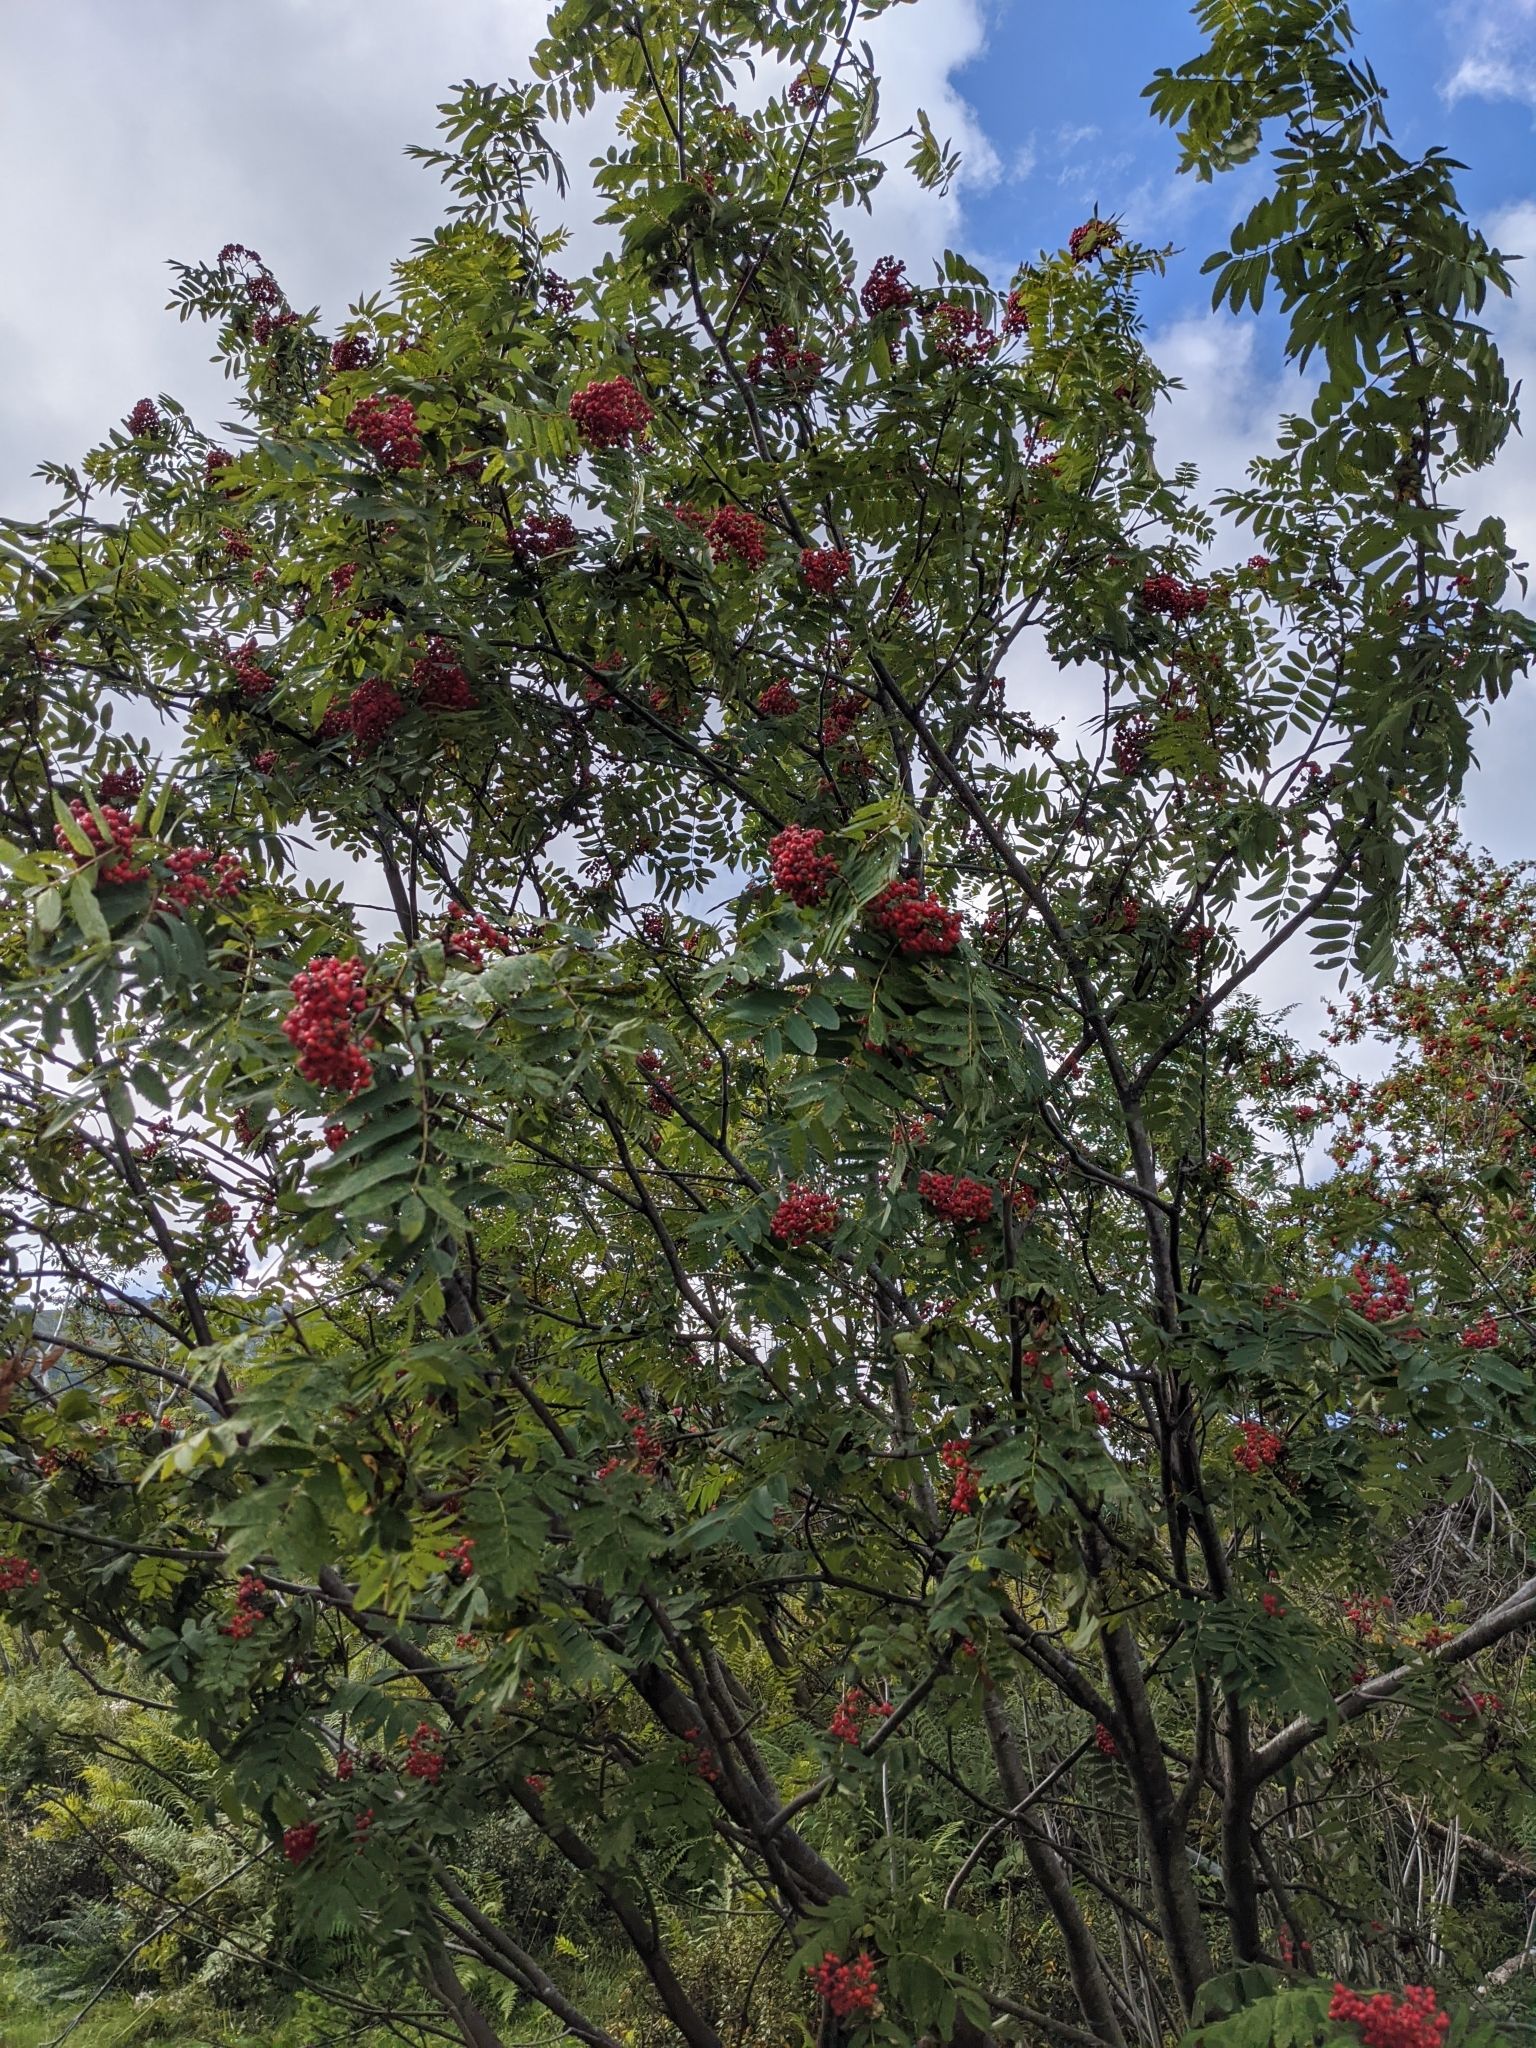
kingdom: Plantae
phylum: Tracheophyta
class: Magnoliopsida
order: Rosales
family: Rosaceae
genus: Sorbus
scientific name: Sorbus aucuparia
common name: Rowan
